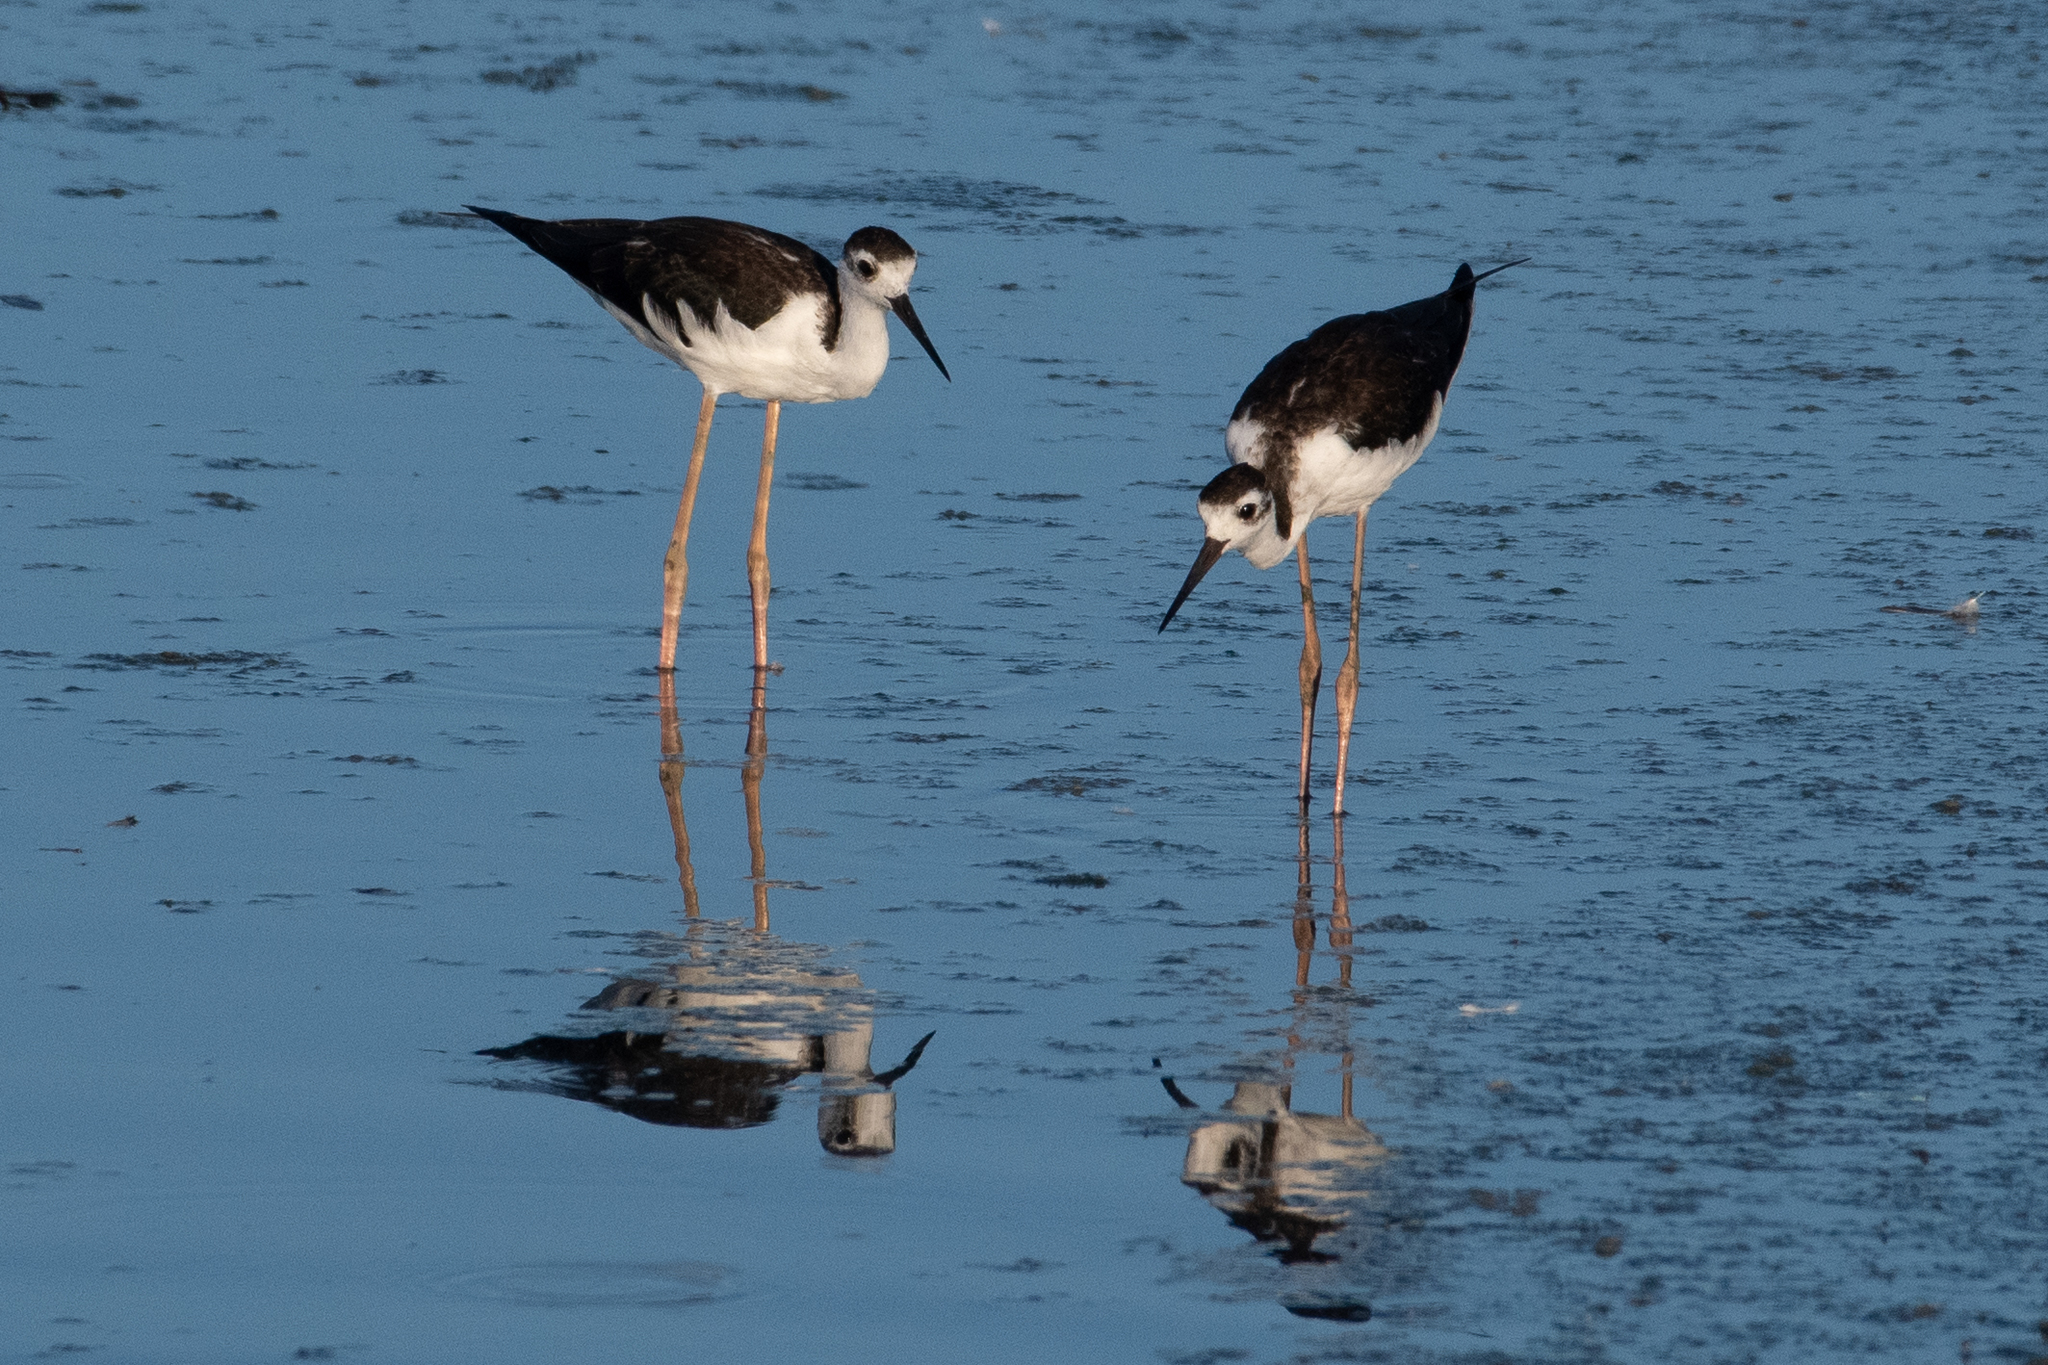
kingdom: Animalia
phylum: Chordata
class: Aves
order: Charadriiformes
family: Recurvirostridae
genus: Himantopus
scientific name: Himantopus mexicanus
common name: Black-necked stilt
